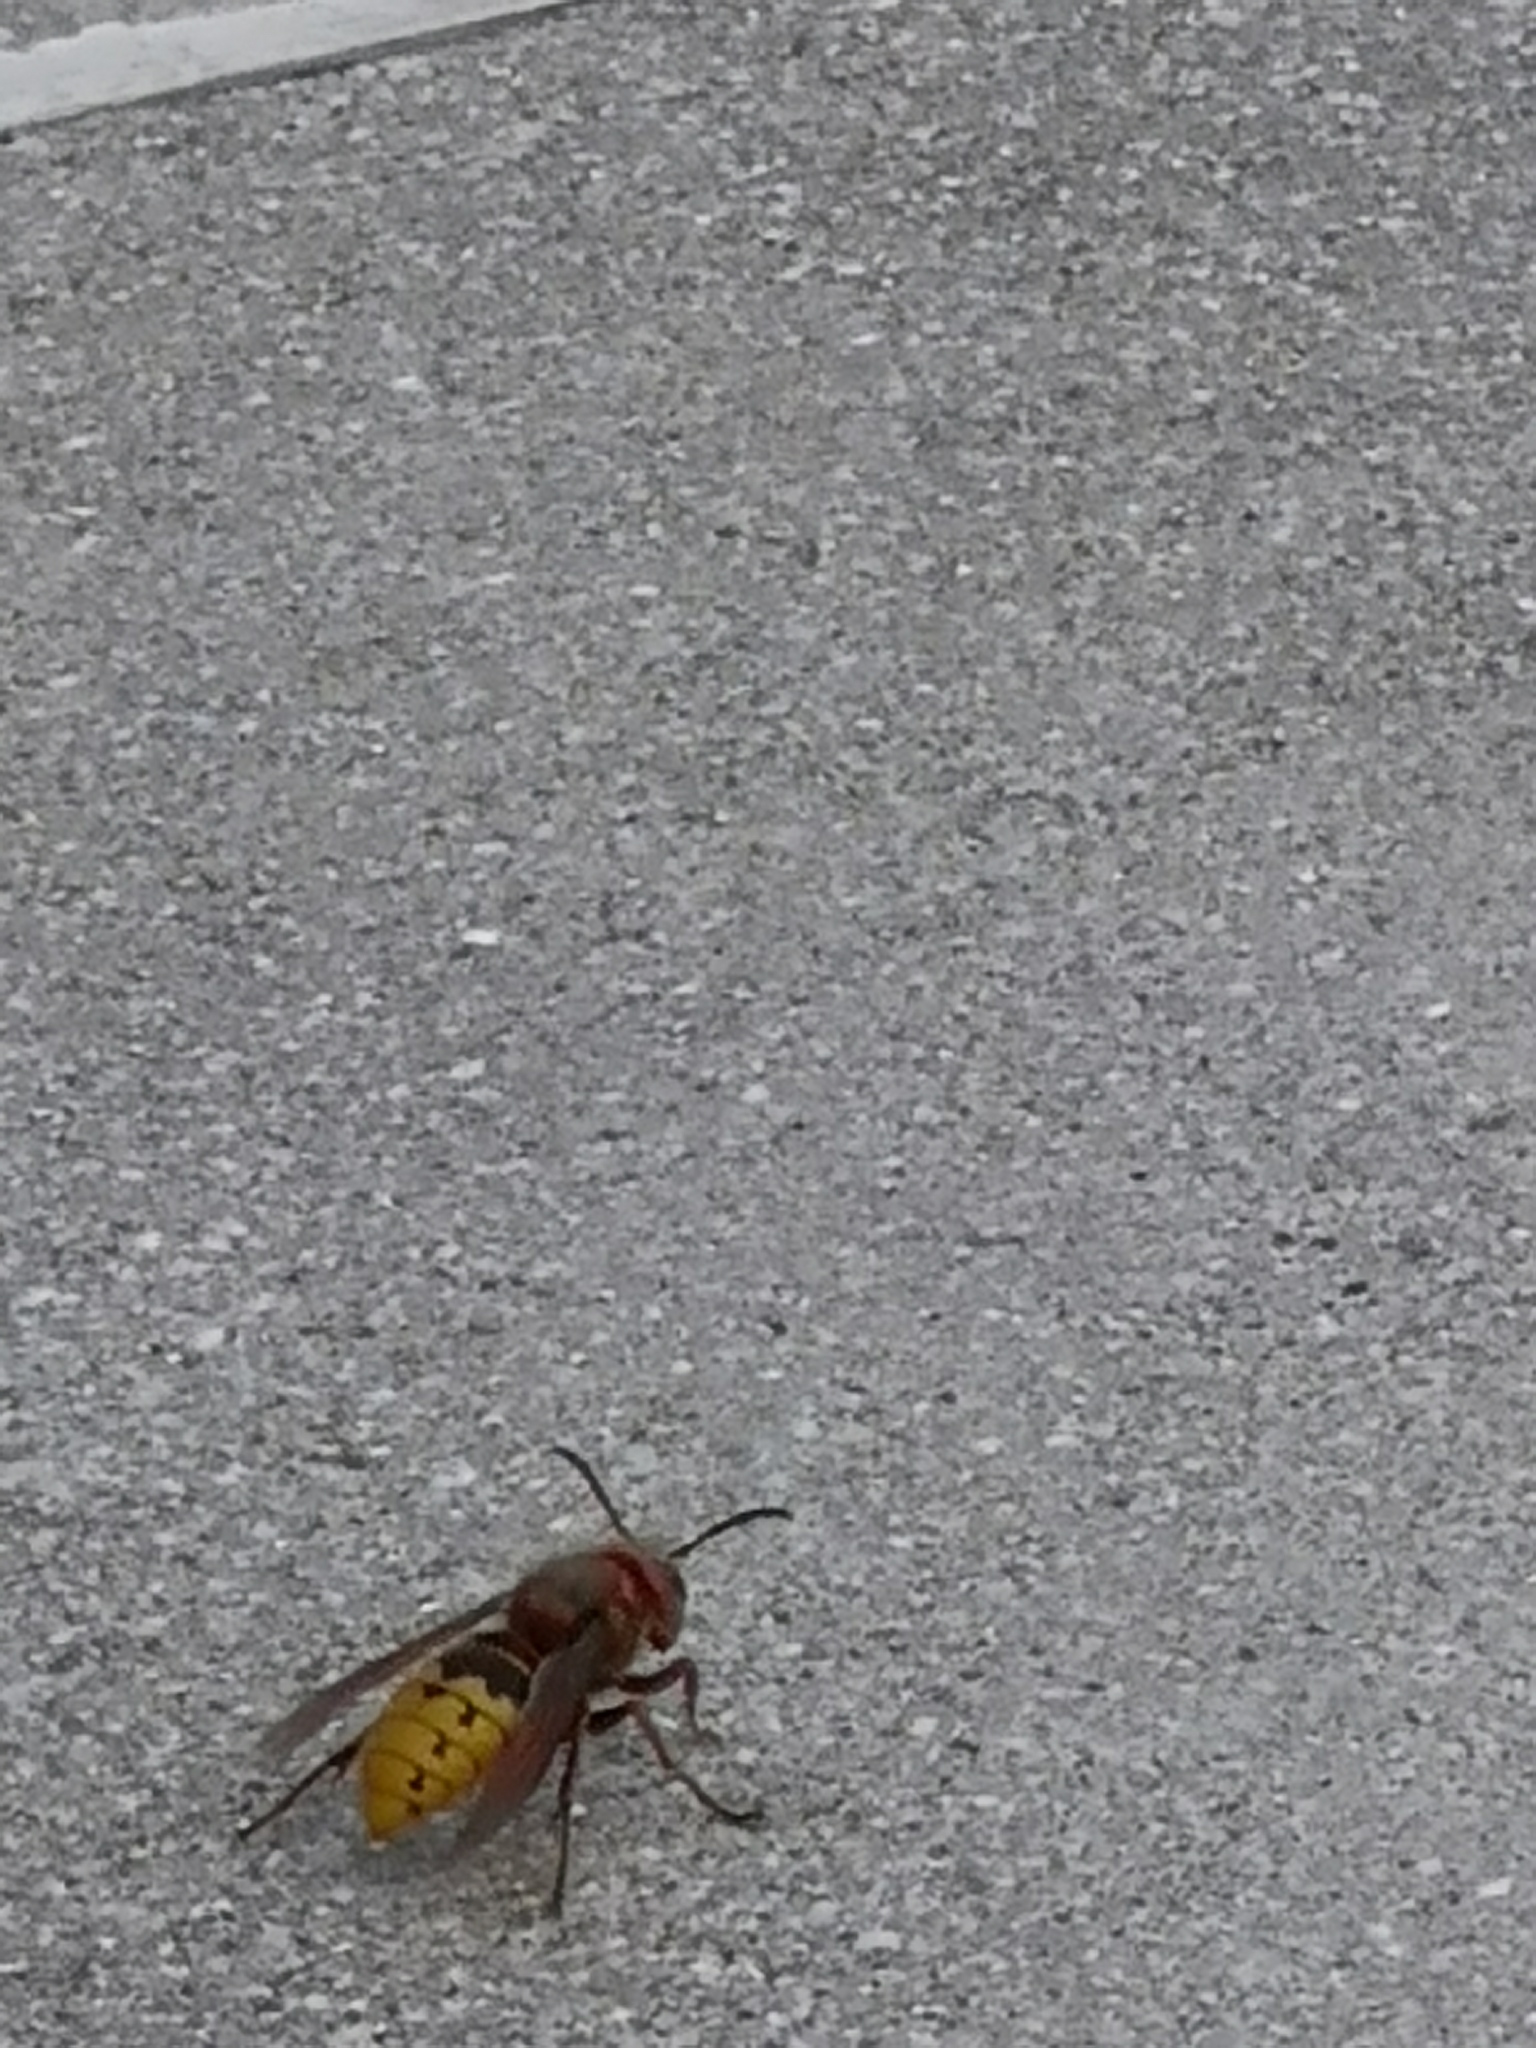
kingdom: Animalia
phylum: Arthropoda
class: Insecta
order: Hymenoptera
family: Vespidae
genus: Vespa
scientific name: Vespa crabro
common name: Hornet
